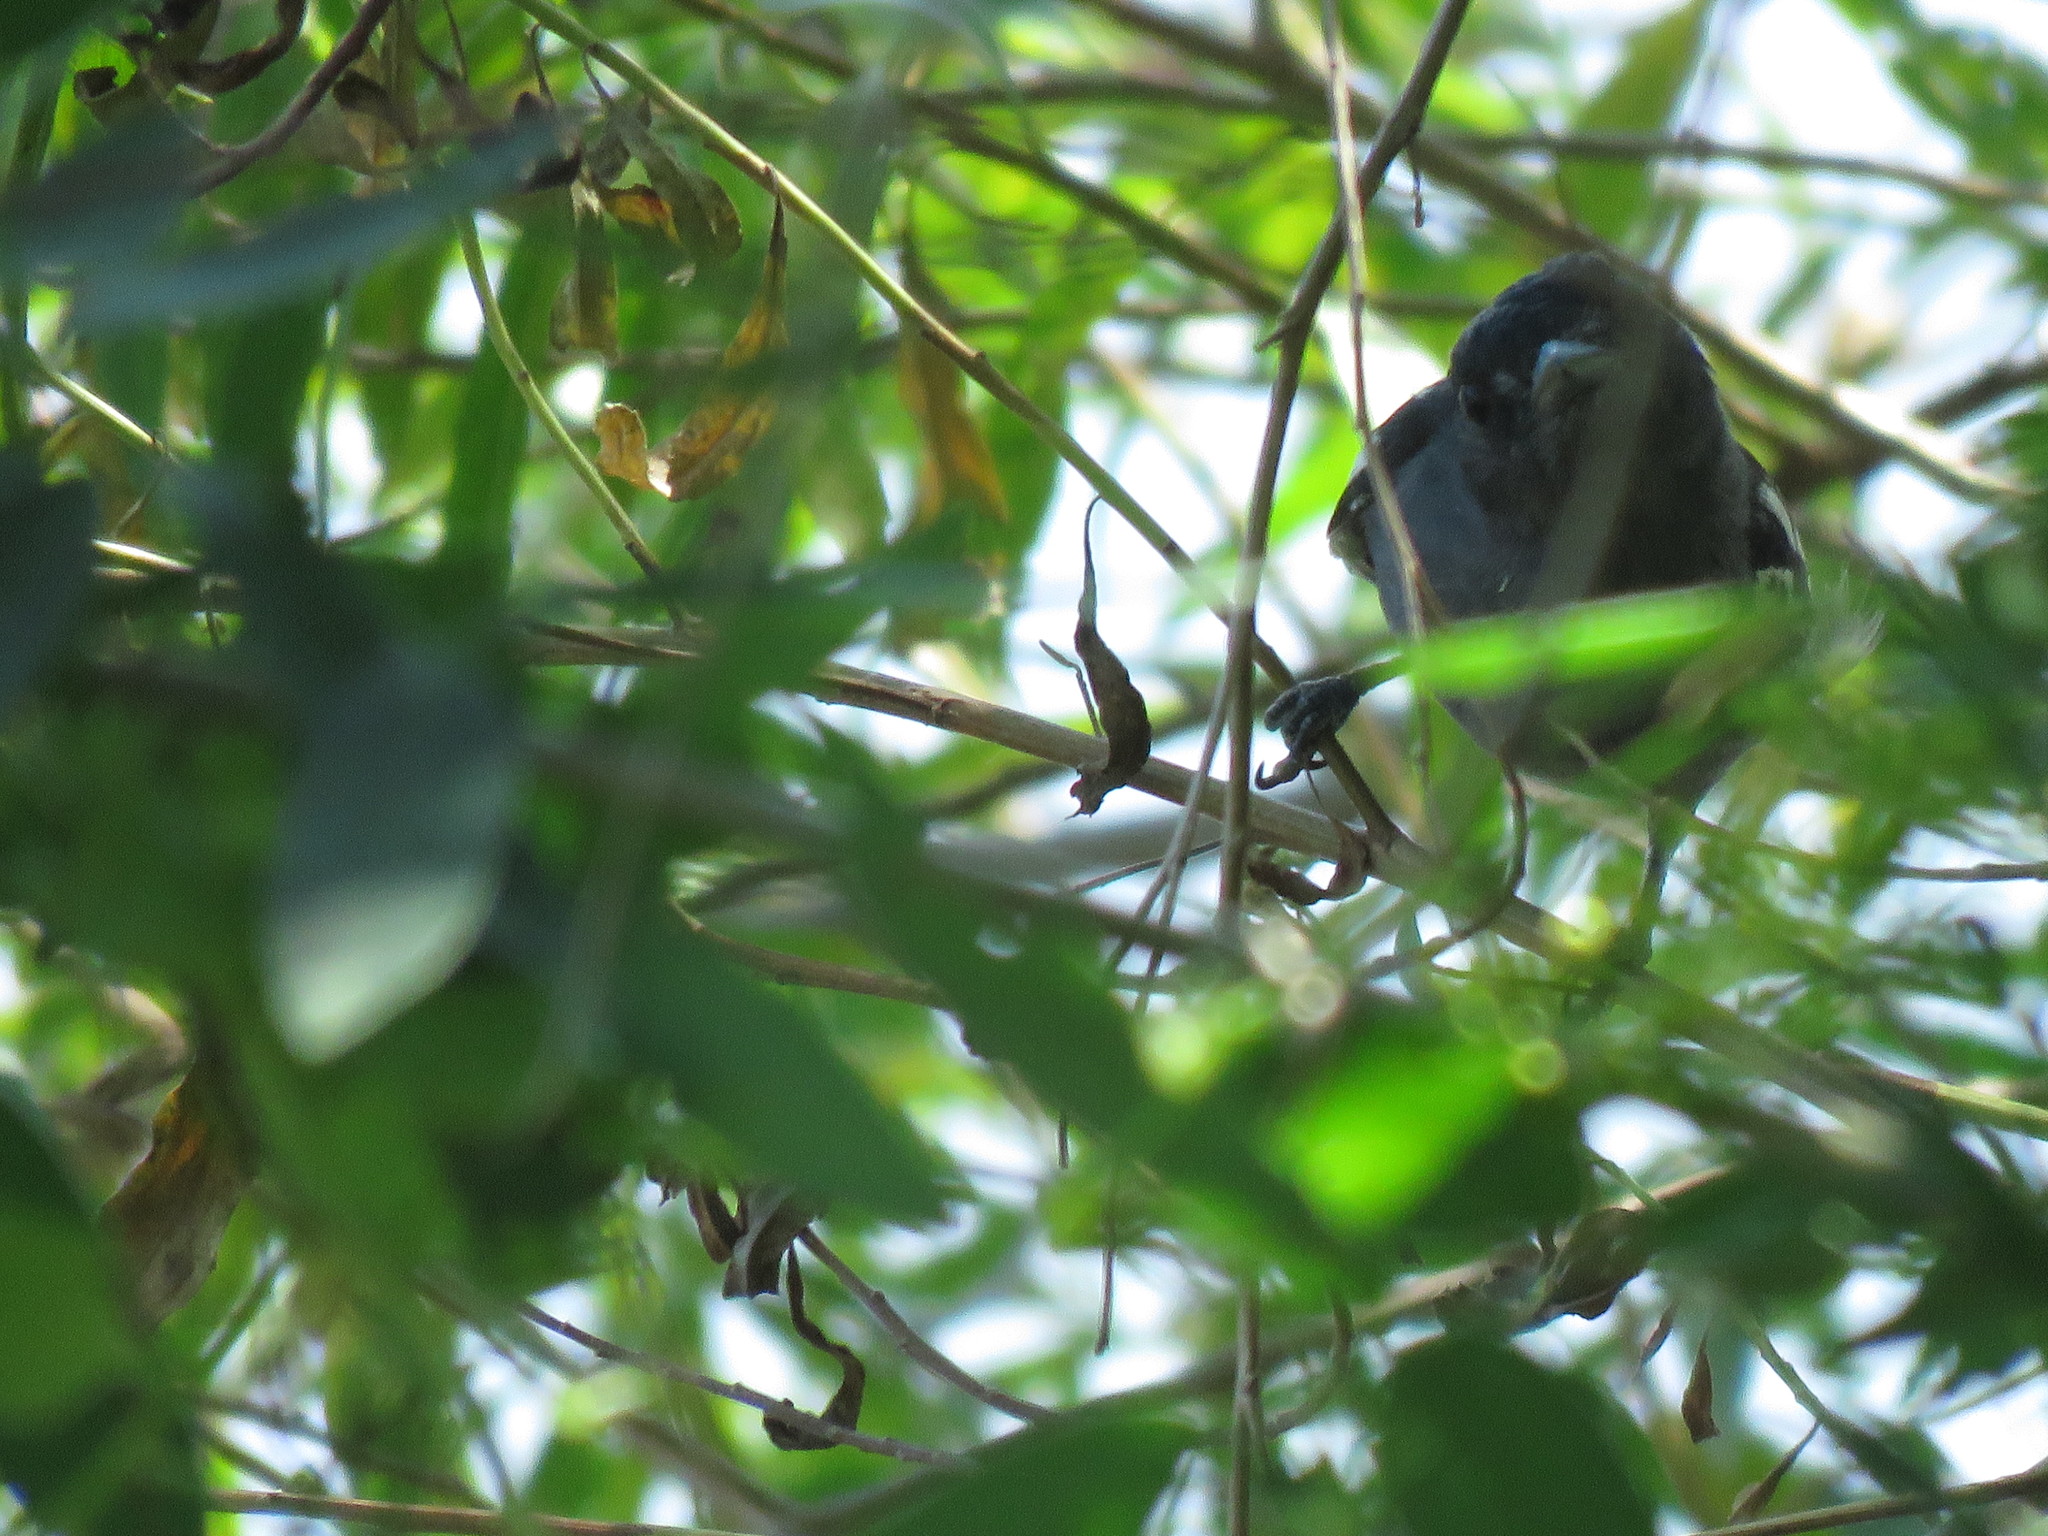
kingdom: Animalia
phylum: Chordata
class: Aves
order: Passeriformes
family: Cotingidae
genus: Pachyramphus
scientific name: Pachyramphus polychopterus
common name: White-winged becard
